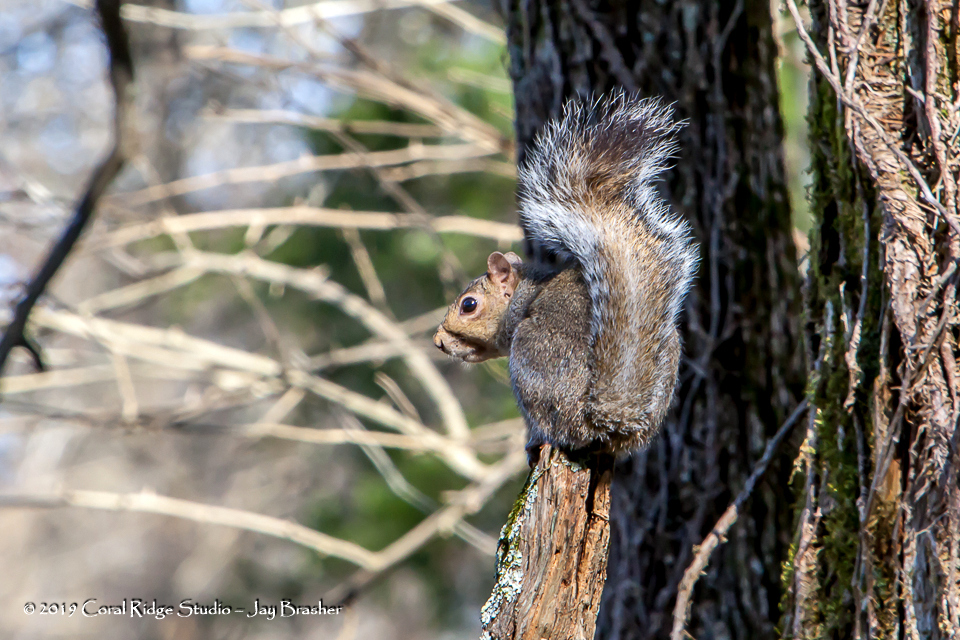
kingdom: Animalia
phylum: Chordata
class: Mammalia
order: Rodentia
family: Sciuridae
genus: Sciurus
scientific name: Sciurus carolinensis
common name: Eastern gray squirrel
